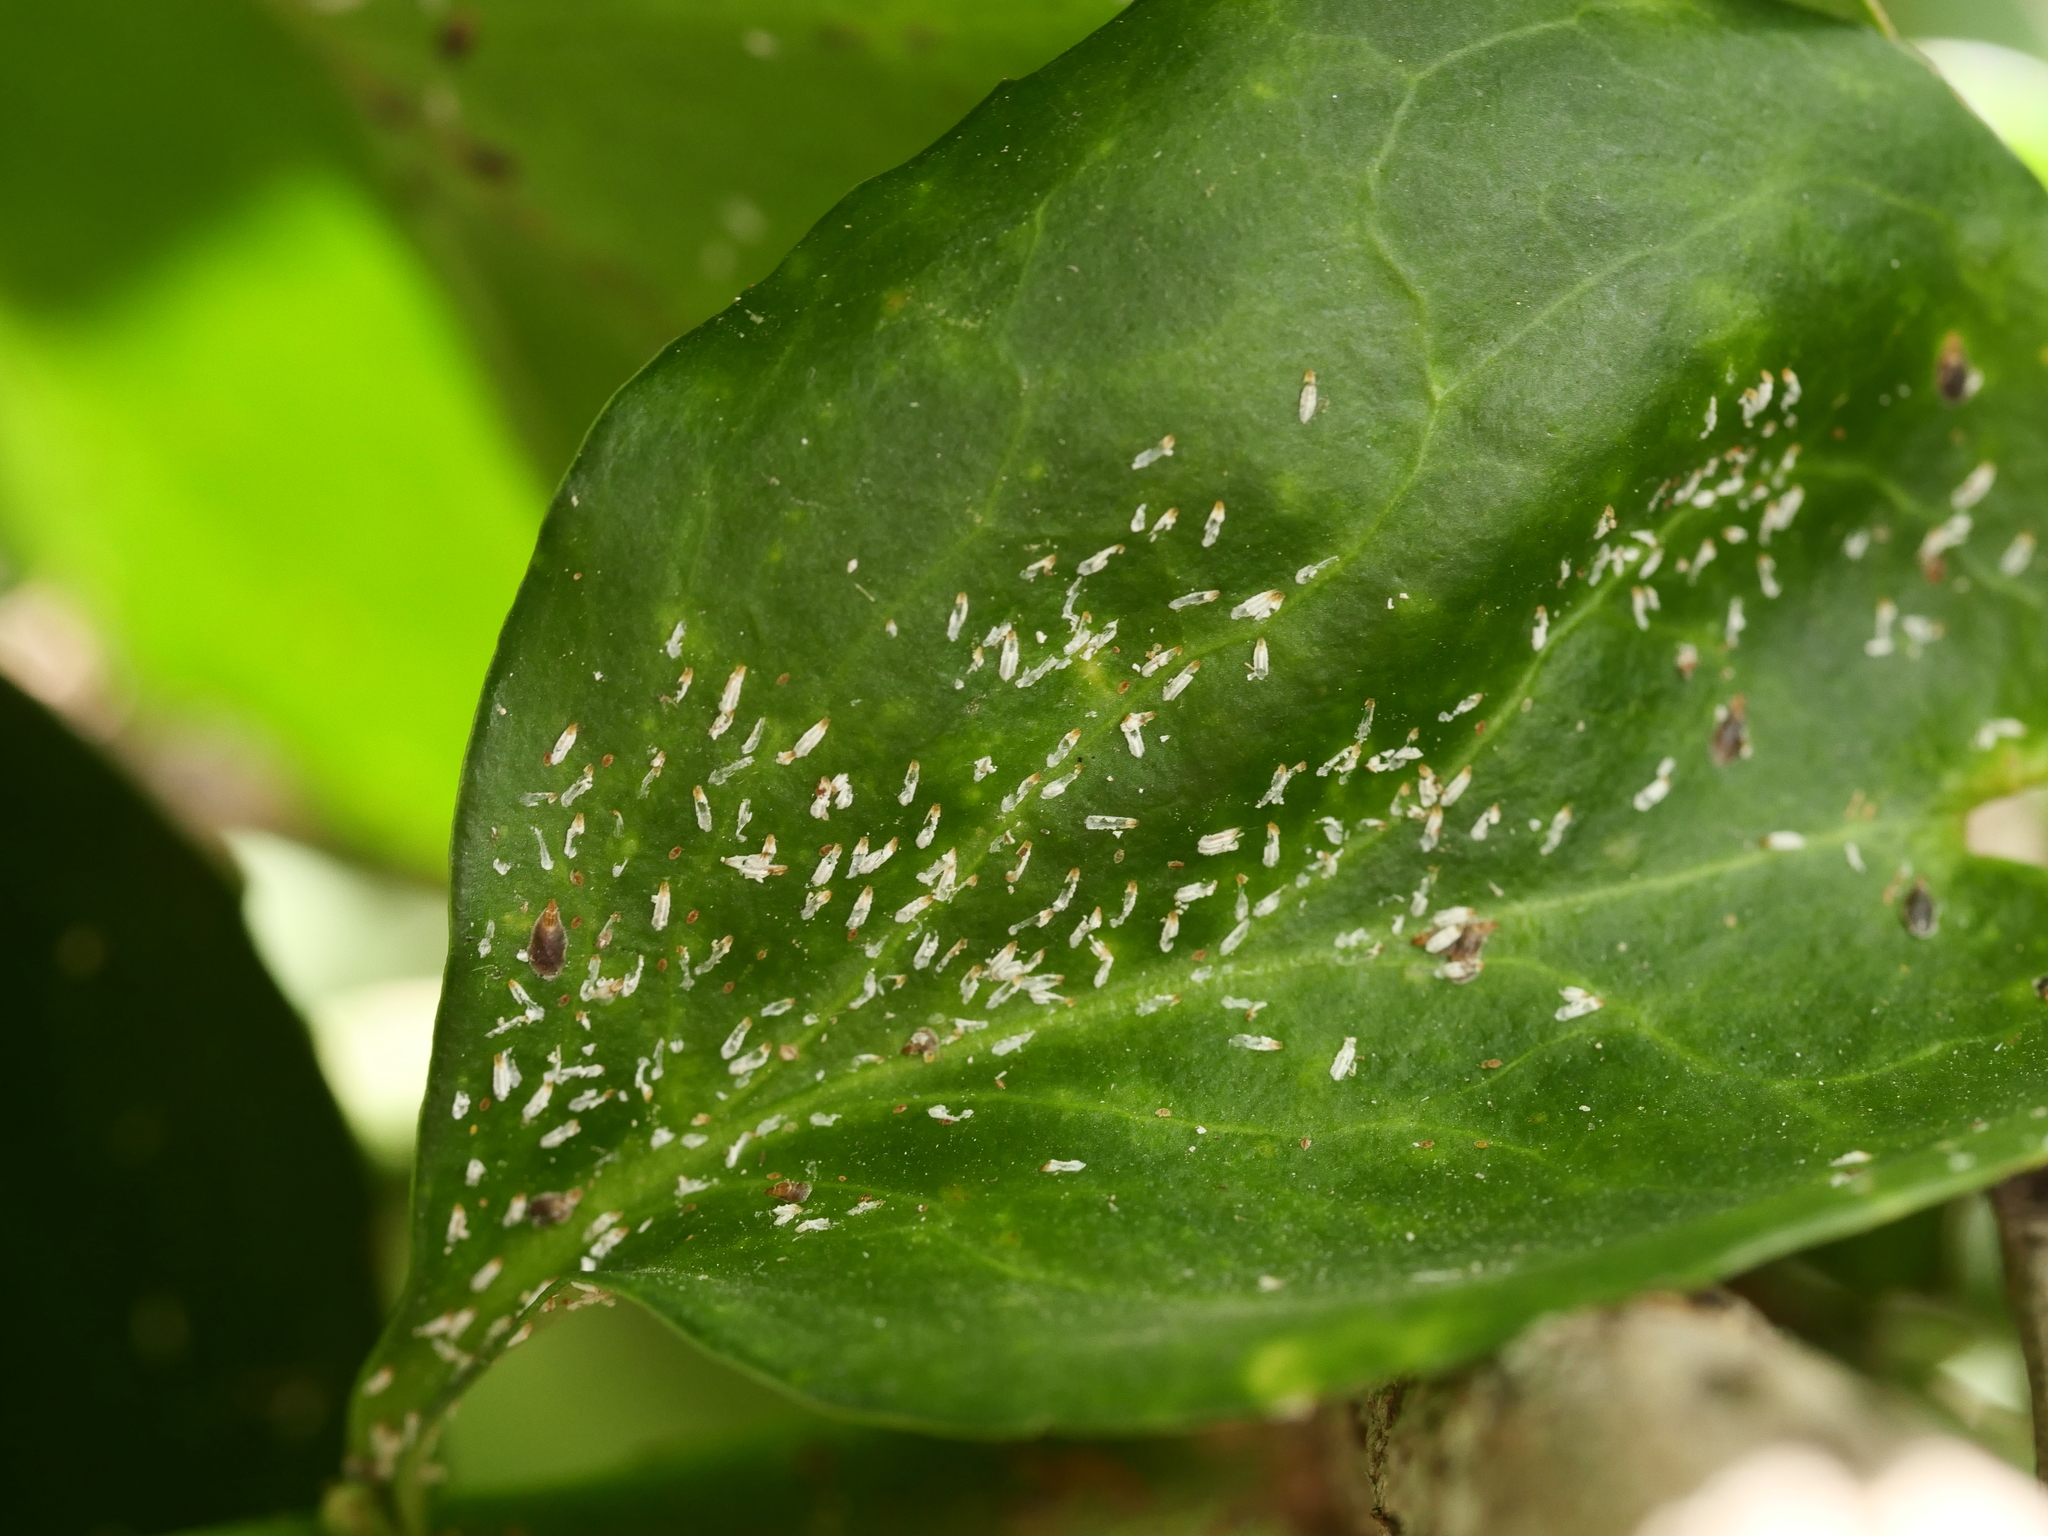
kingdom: Animalia
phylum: Arthropoda
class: Insecta
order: Hemiptera
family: Diaspididae
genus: Unaspis
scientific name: Unaspis euonymi
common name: Euonymus scale
